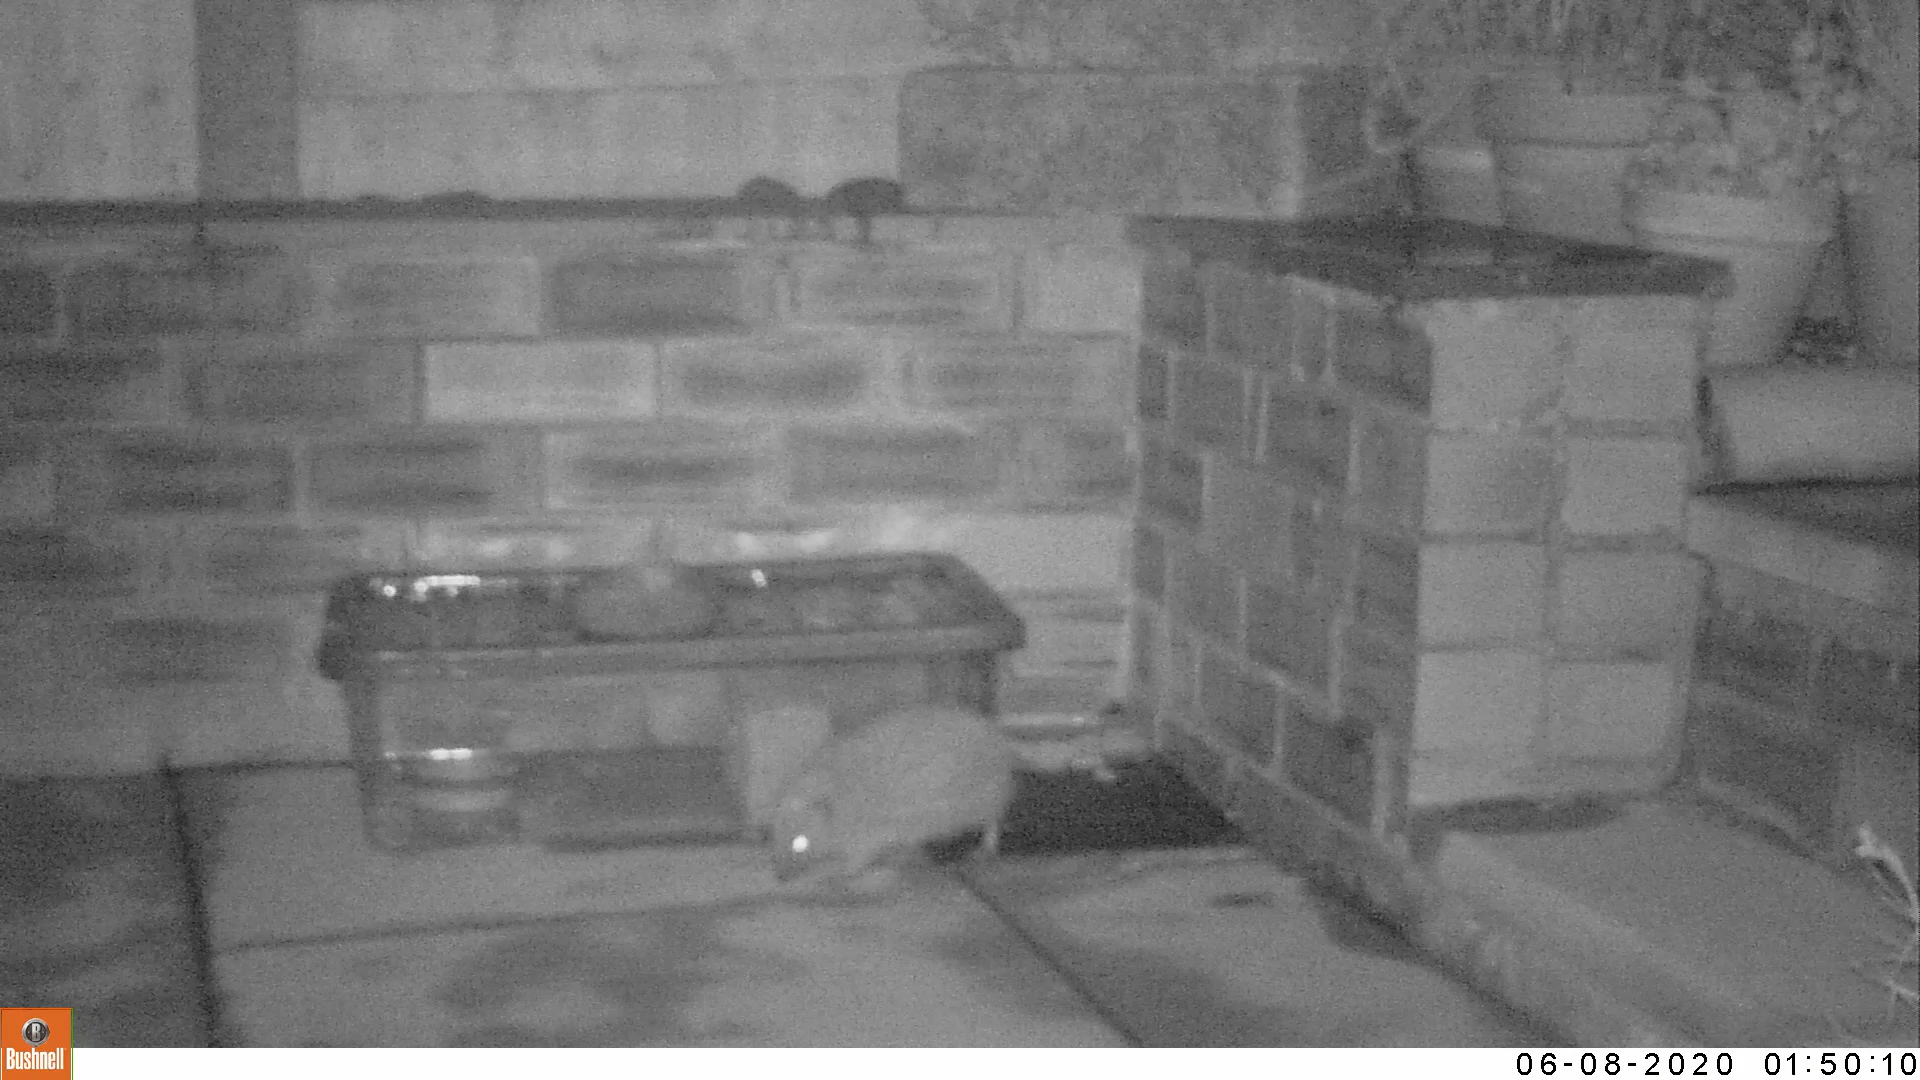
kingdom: Animalia
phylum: Chordata
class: Mammalia
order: Erinaceomorpha
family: Erinaceidae
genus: Erinaceus
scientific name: Erinaceus europaeus
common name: West european hedgehog
